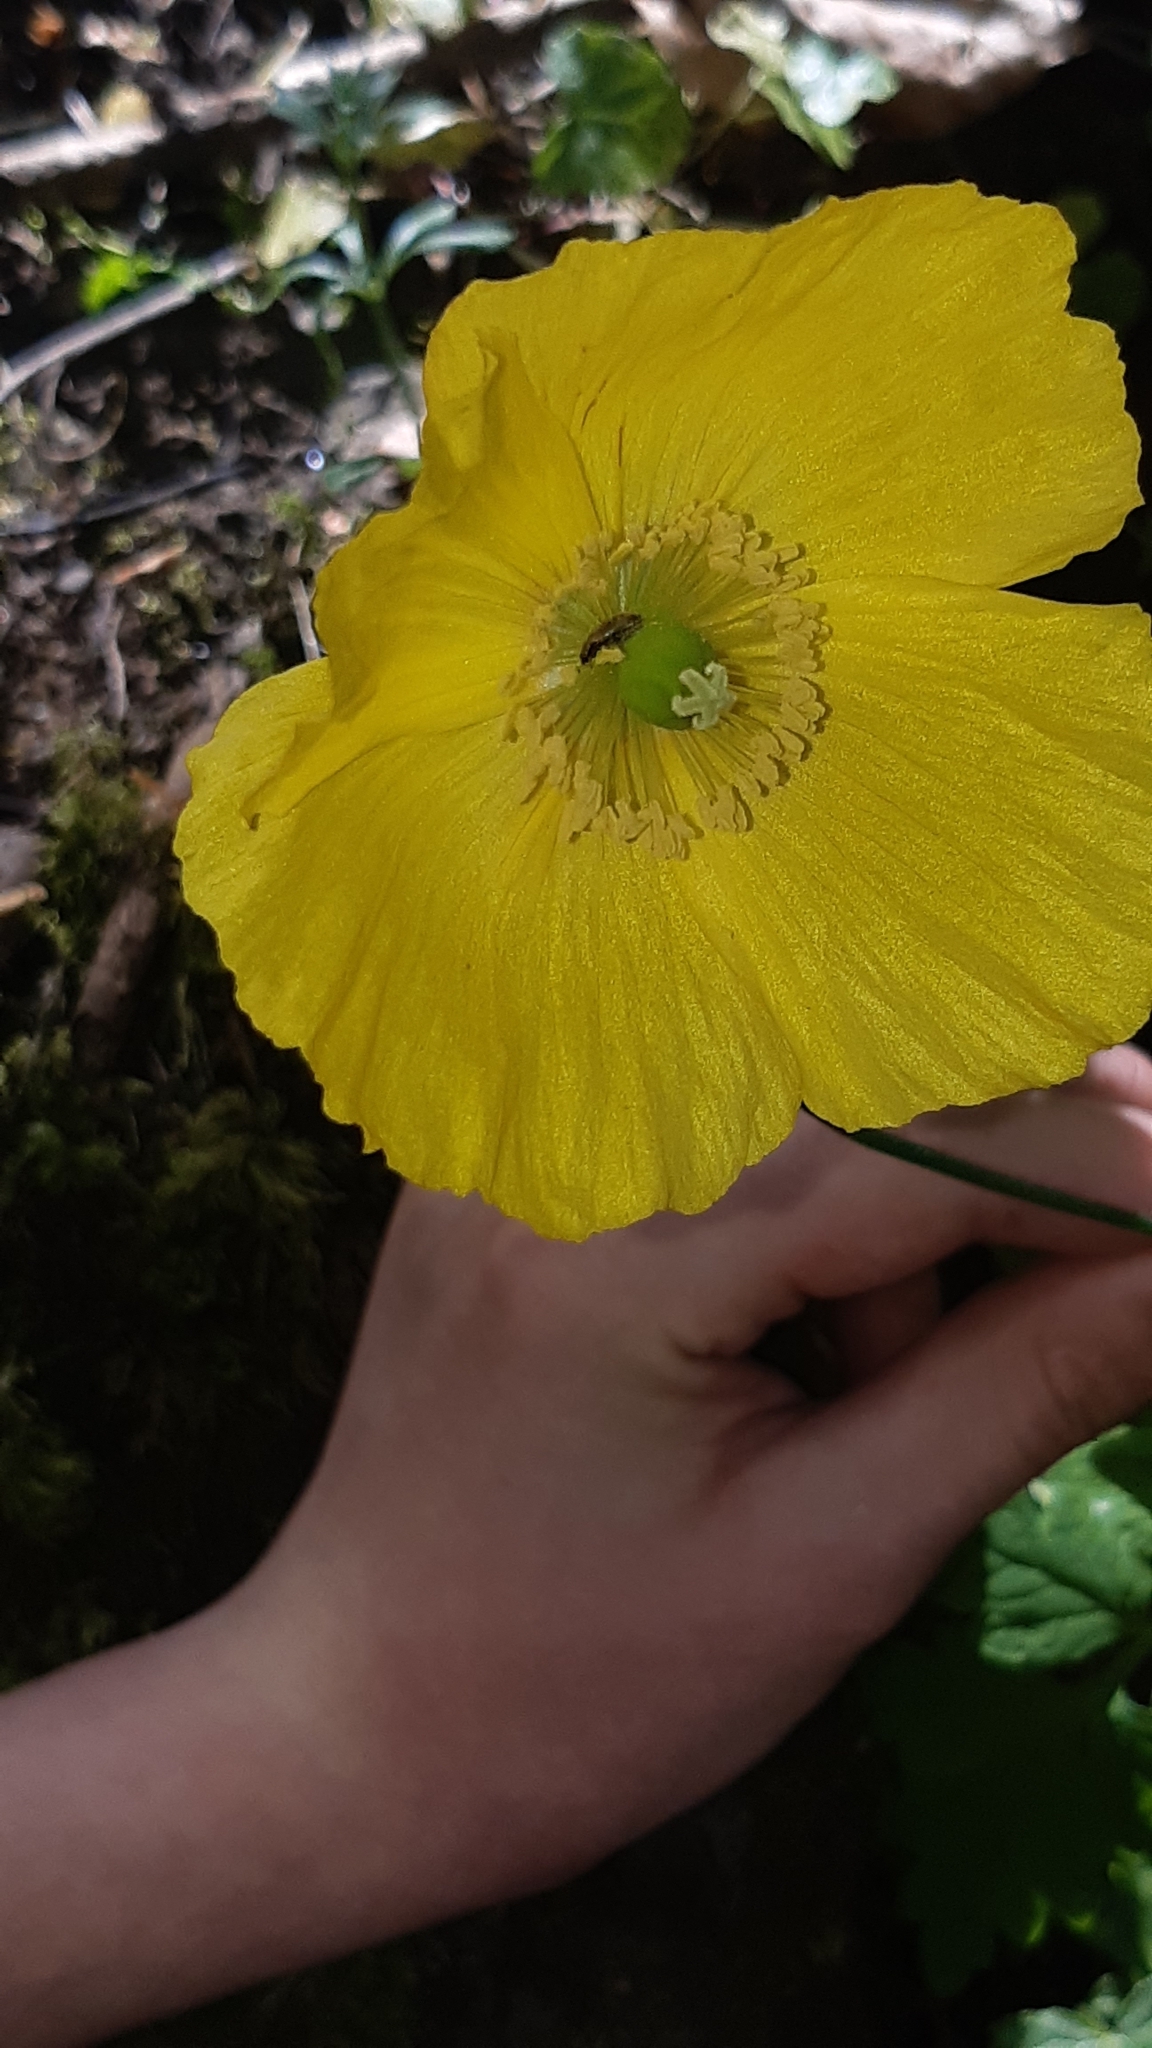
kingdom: Plantae
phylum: Tracheophyta
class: Magnoliopsida
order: Ranunculales
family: Papaveraceae
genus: Papaver
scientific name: Papaver cambricum
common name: Poppy
